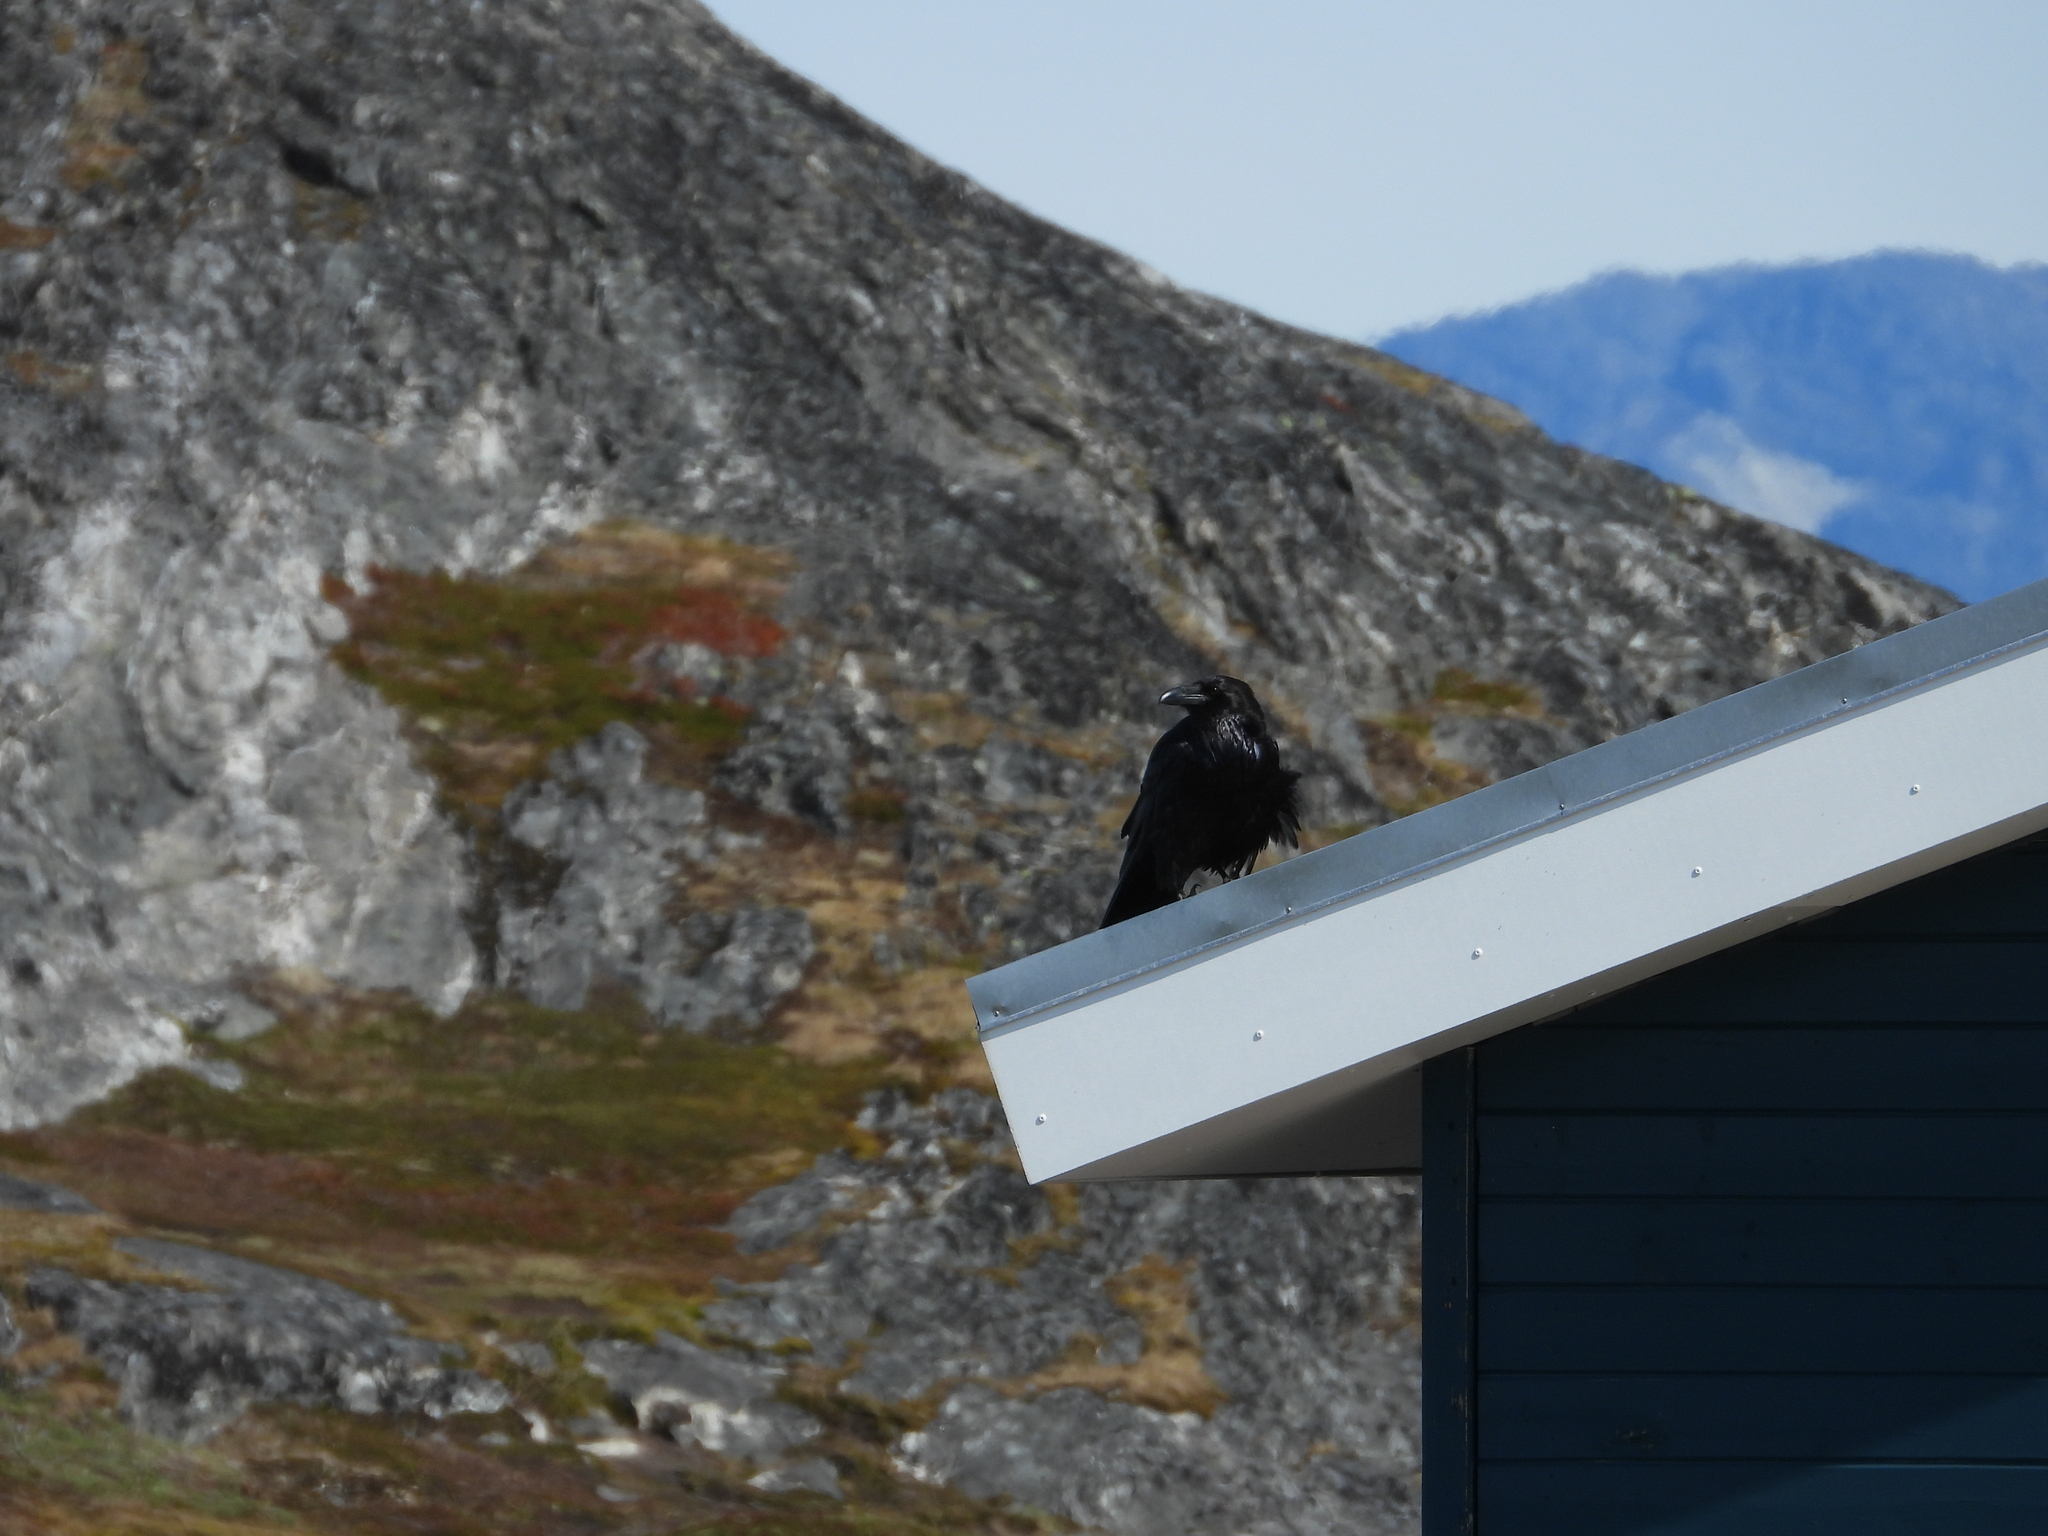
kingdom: Animalia
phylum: Chordata
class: Aves
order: Passeriformes
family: Corvidae
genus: Corvus
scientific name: Corvus corax
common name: Common raven
